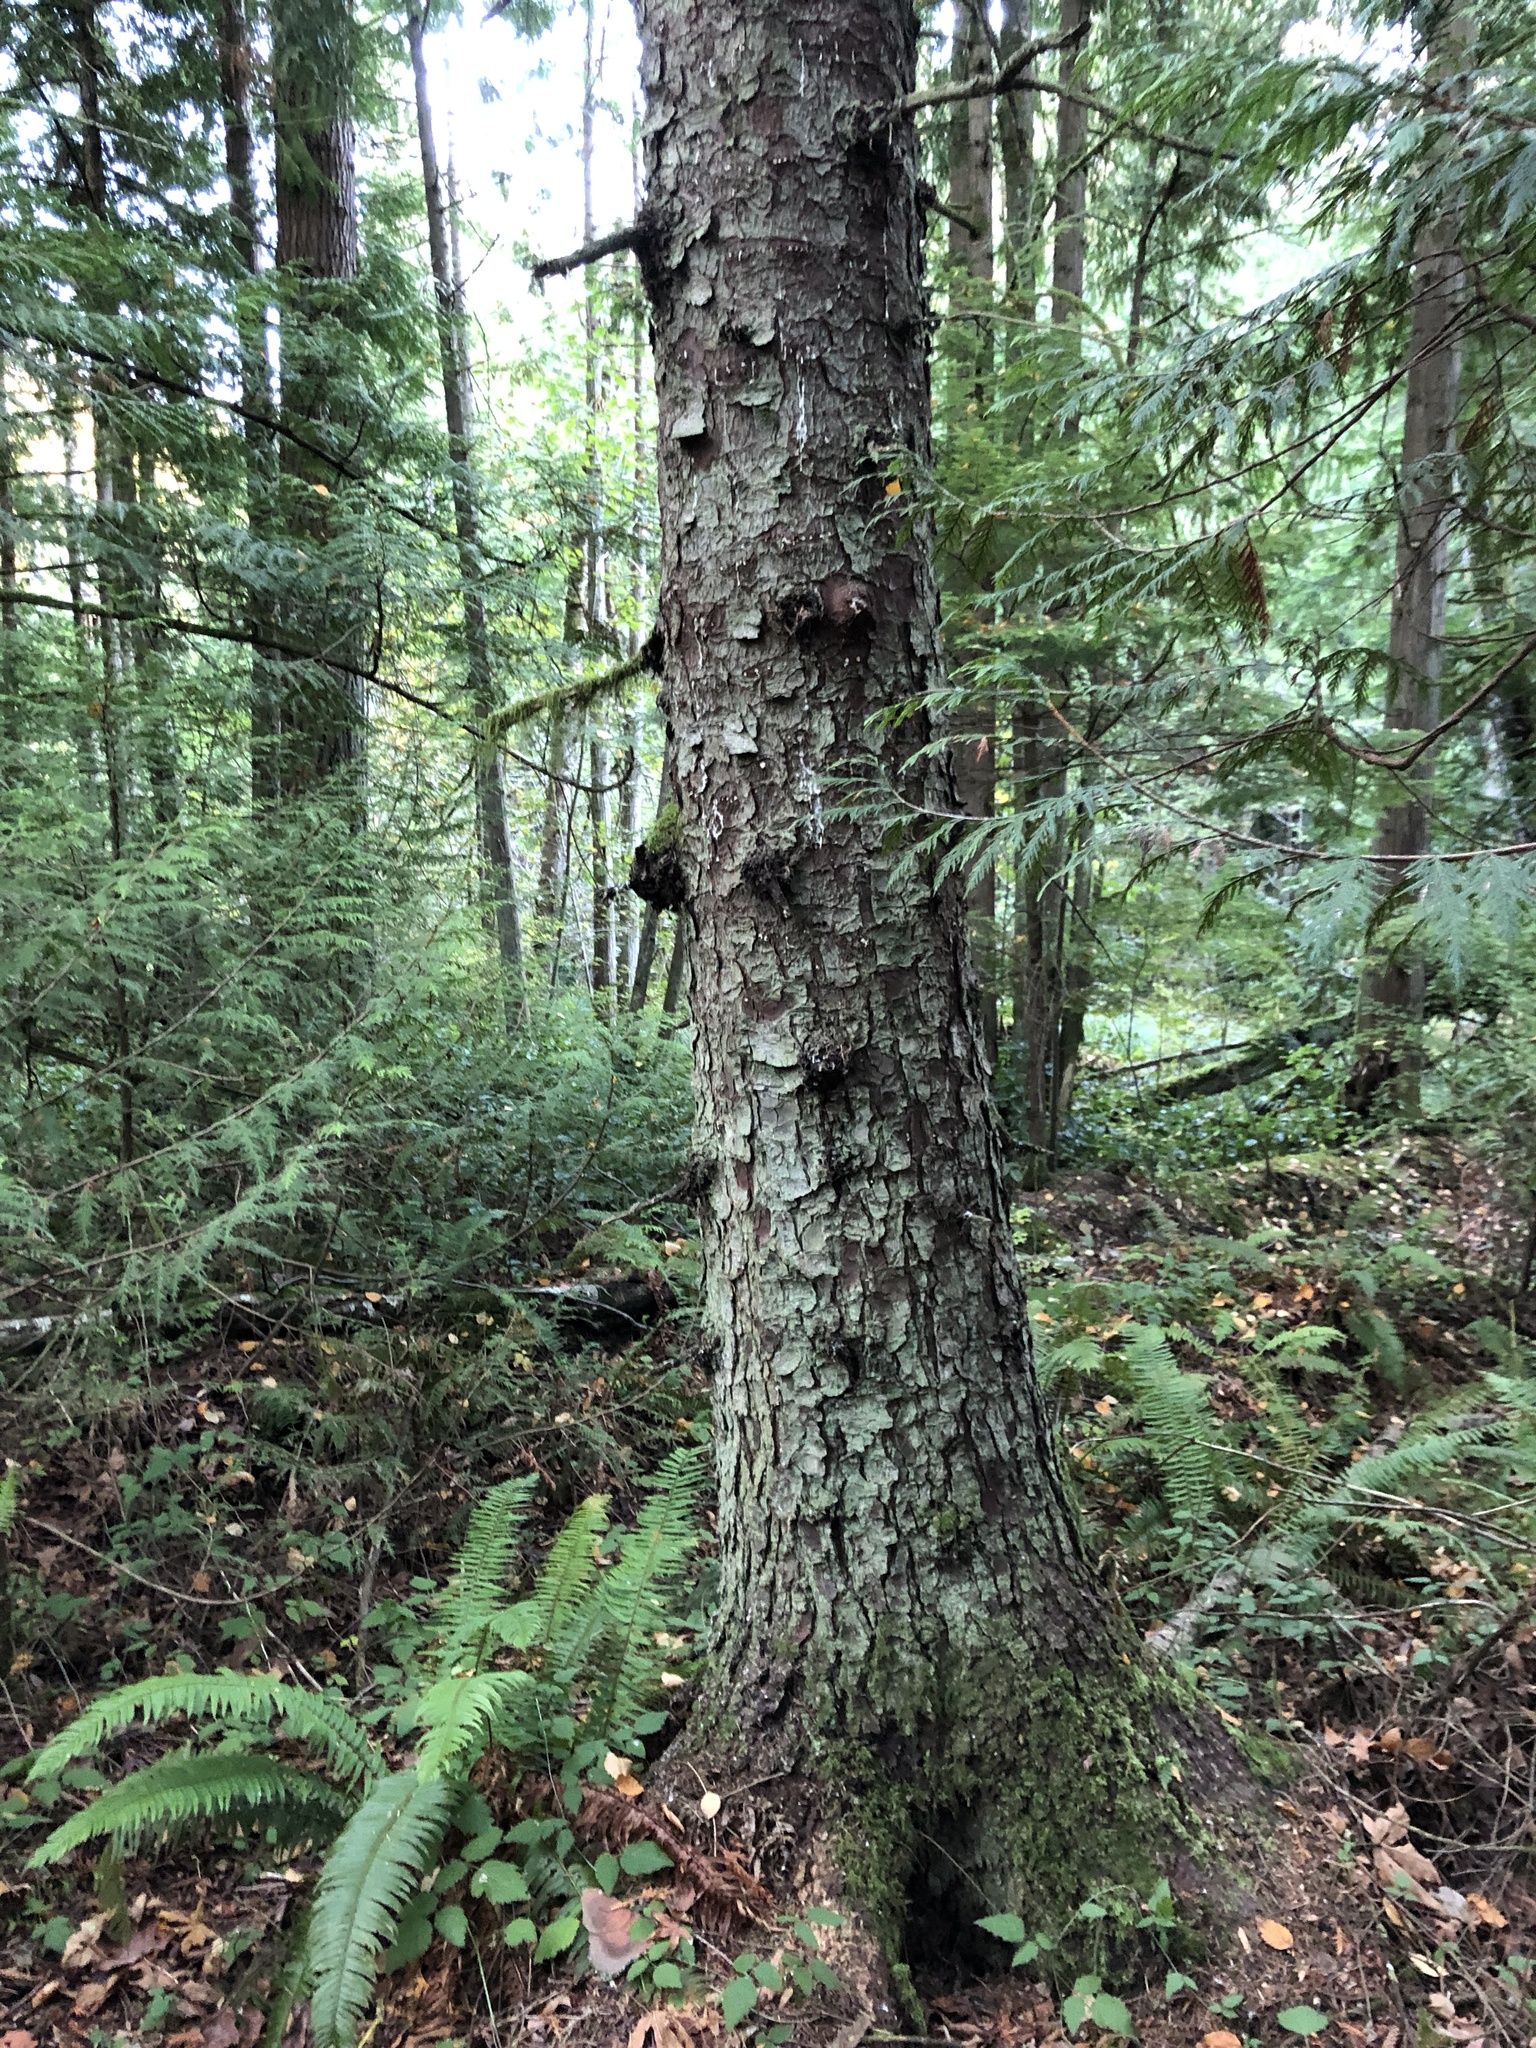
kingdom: Plantae
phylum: Tracheophyta
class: Pinopsida
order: Pinales
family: Pinaceae
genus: Picea
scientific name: Picea sitchensis
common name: Sitka spruce
